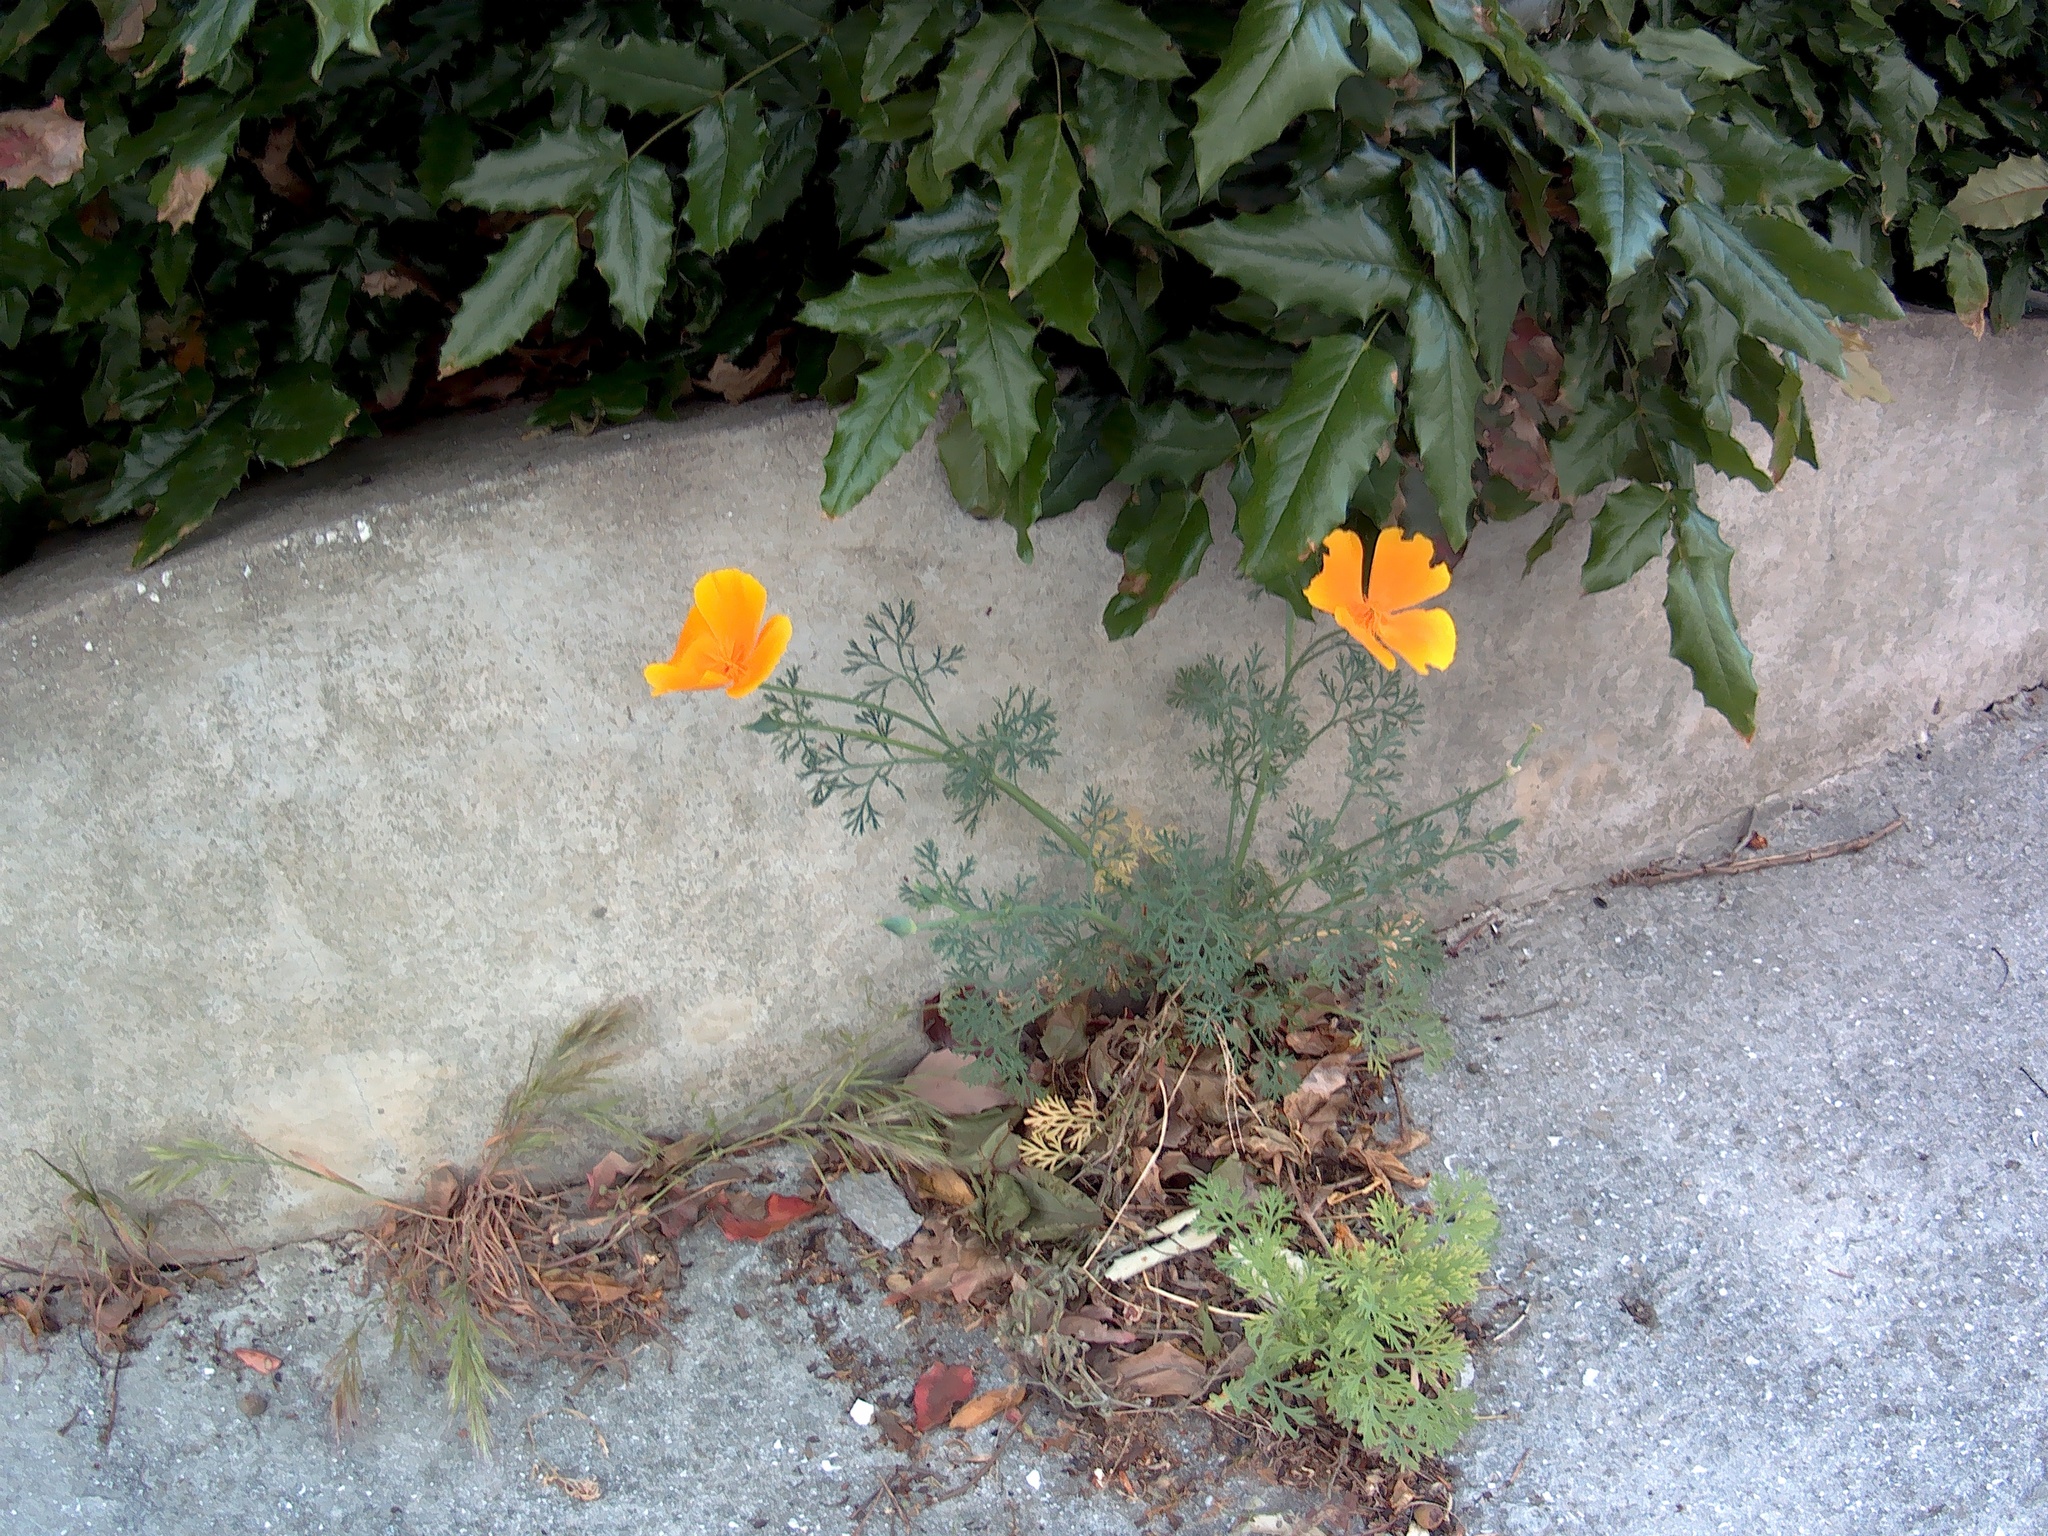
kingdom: Plantae
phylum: Tracheophyta
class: Magnoliopsida
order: Ranunculales
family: Papaveraceae
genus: Eschscholzia
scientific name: Eschscholzia californica
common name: California poppy
